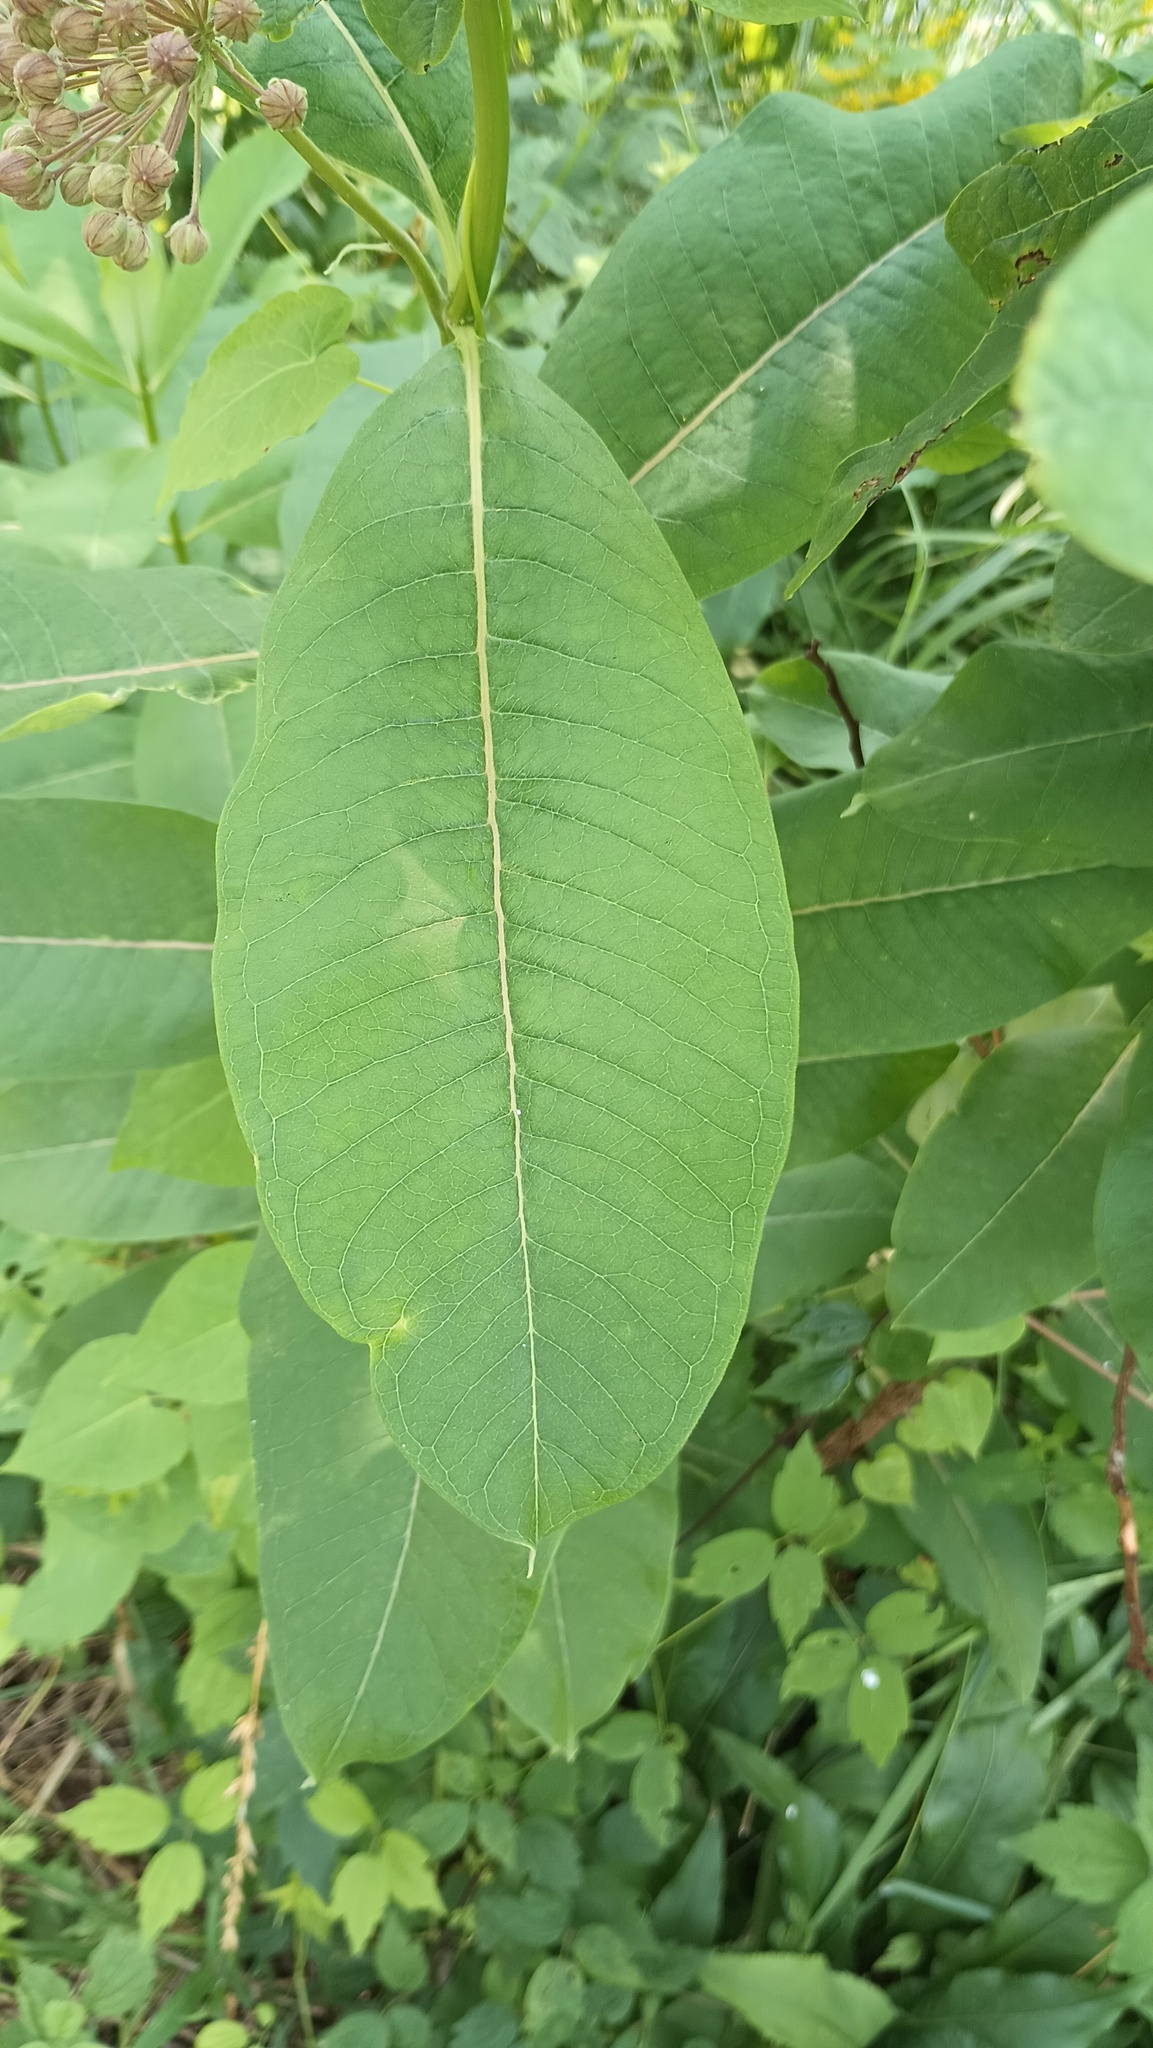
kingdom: Plantae
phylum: Tracheophyta
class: Magnoliopsida
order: Gentianales
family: Apocynaceae
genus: Asclepias
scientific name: Asclepias syriaca
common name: Common milkweed
